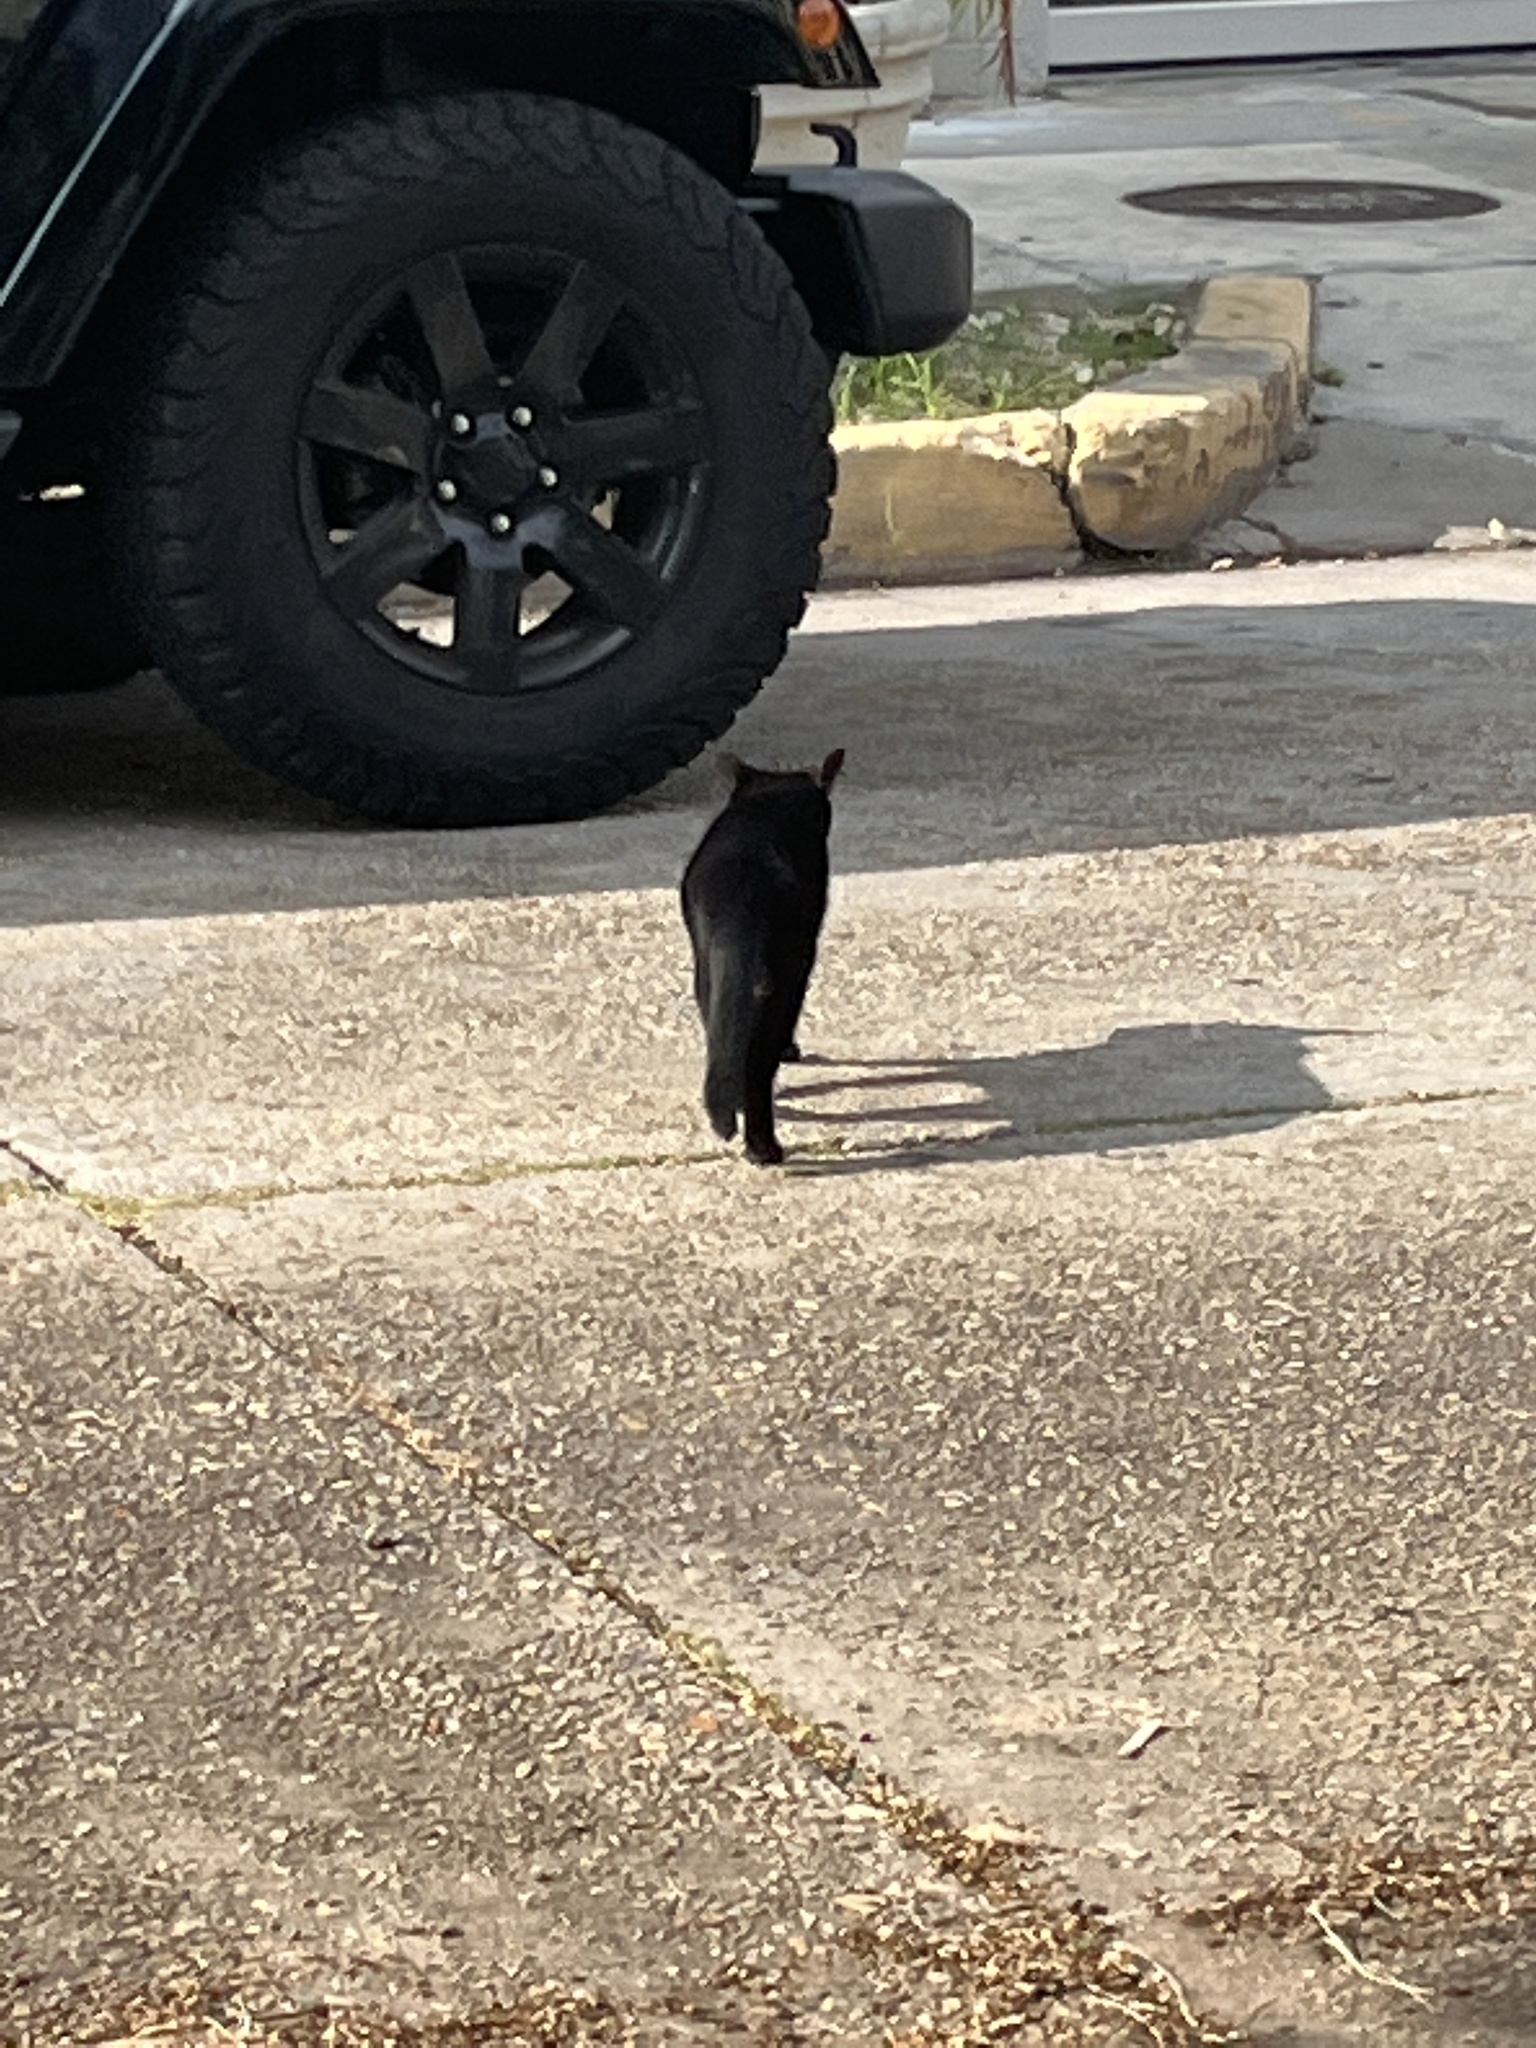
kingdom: Animalia
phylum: Chordata
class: Mammalia
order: Carnivora
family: Felidae
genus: Felis
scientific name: Felis catus
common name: Domestic cat
